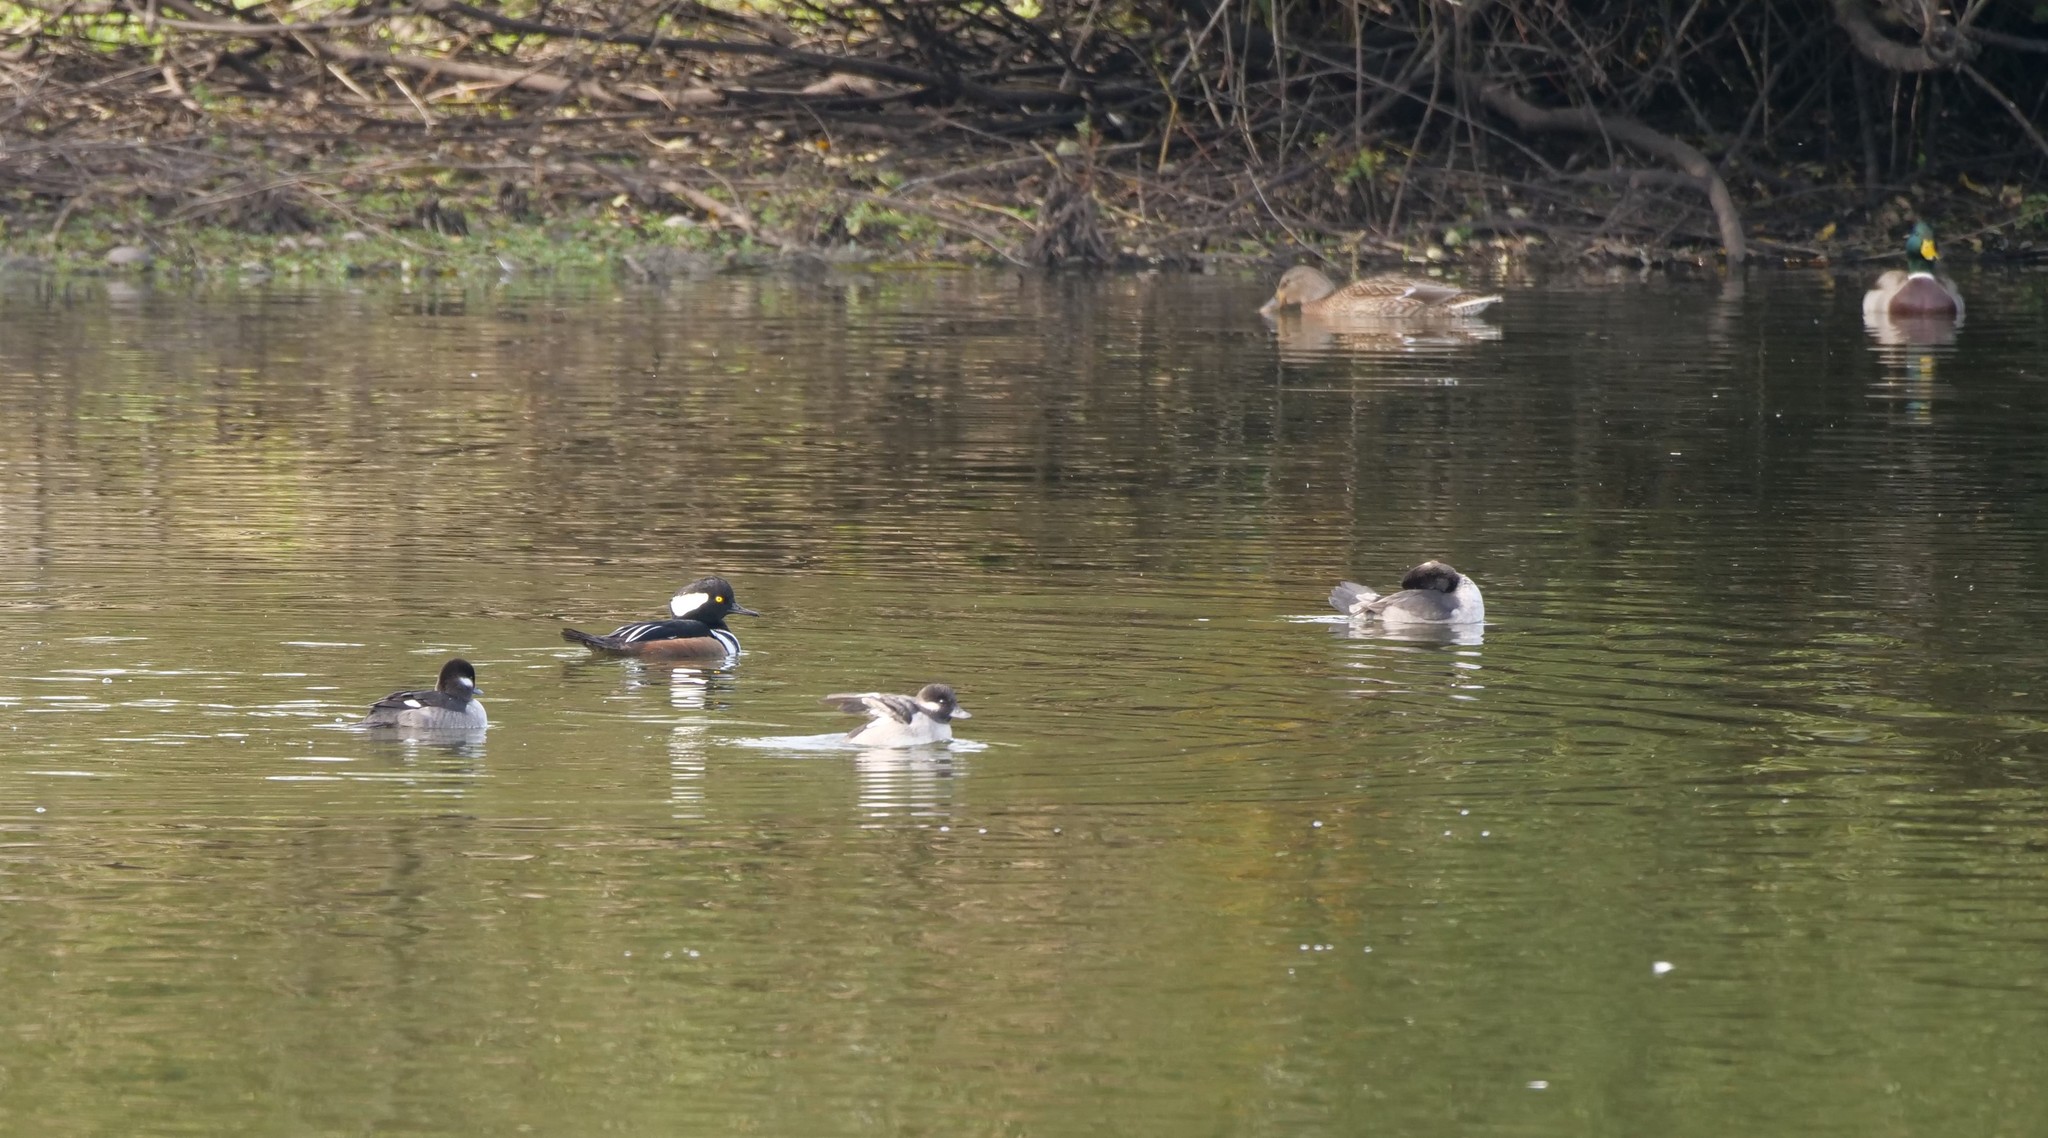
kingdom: Animalia
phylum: Chordata
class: Aves
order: Anseriformes
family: Anatidae
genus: Lophodytes
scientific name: Lophodytes cucullatus
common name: Hooded merganser
